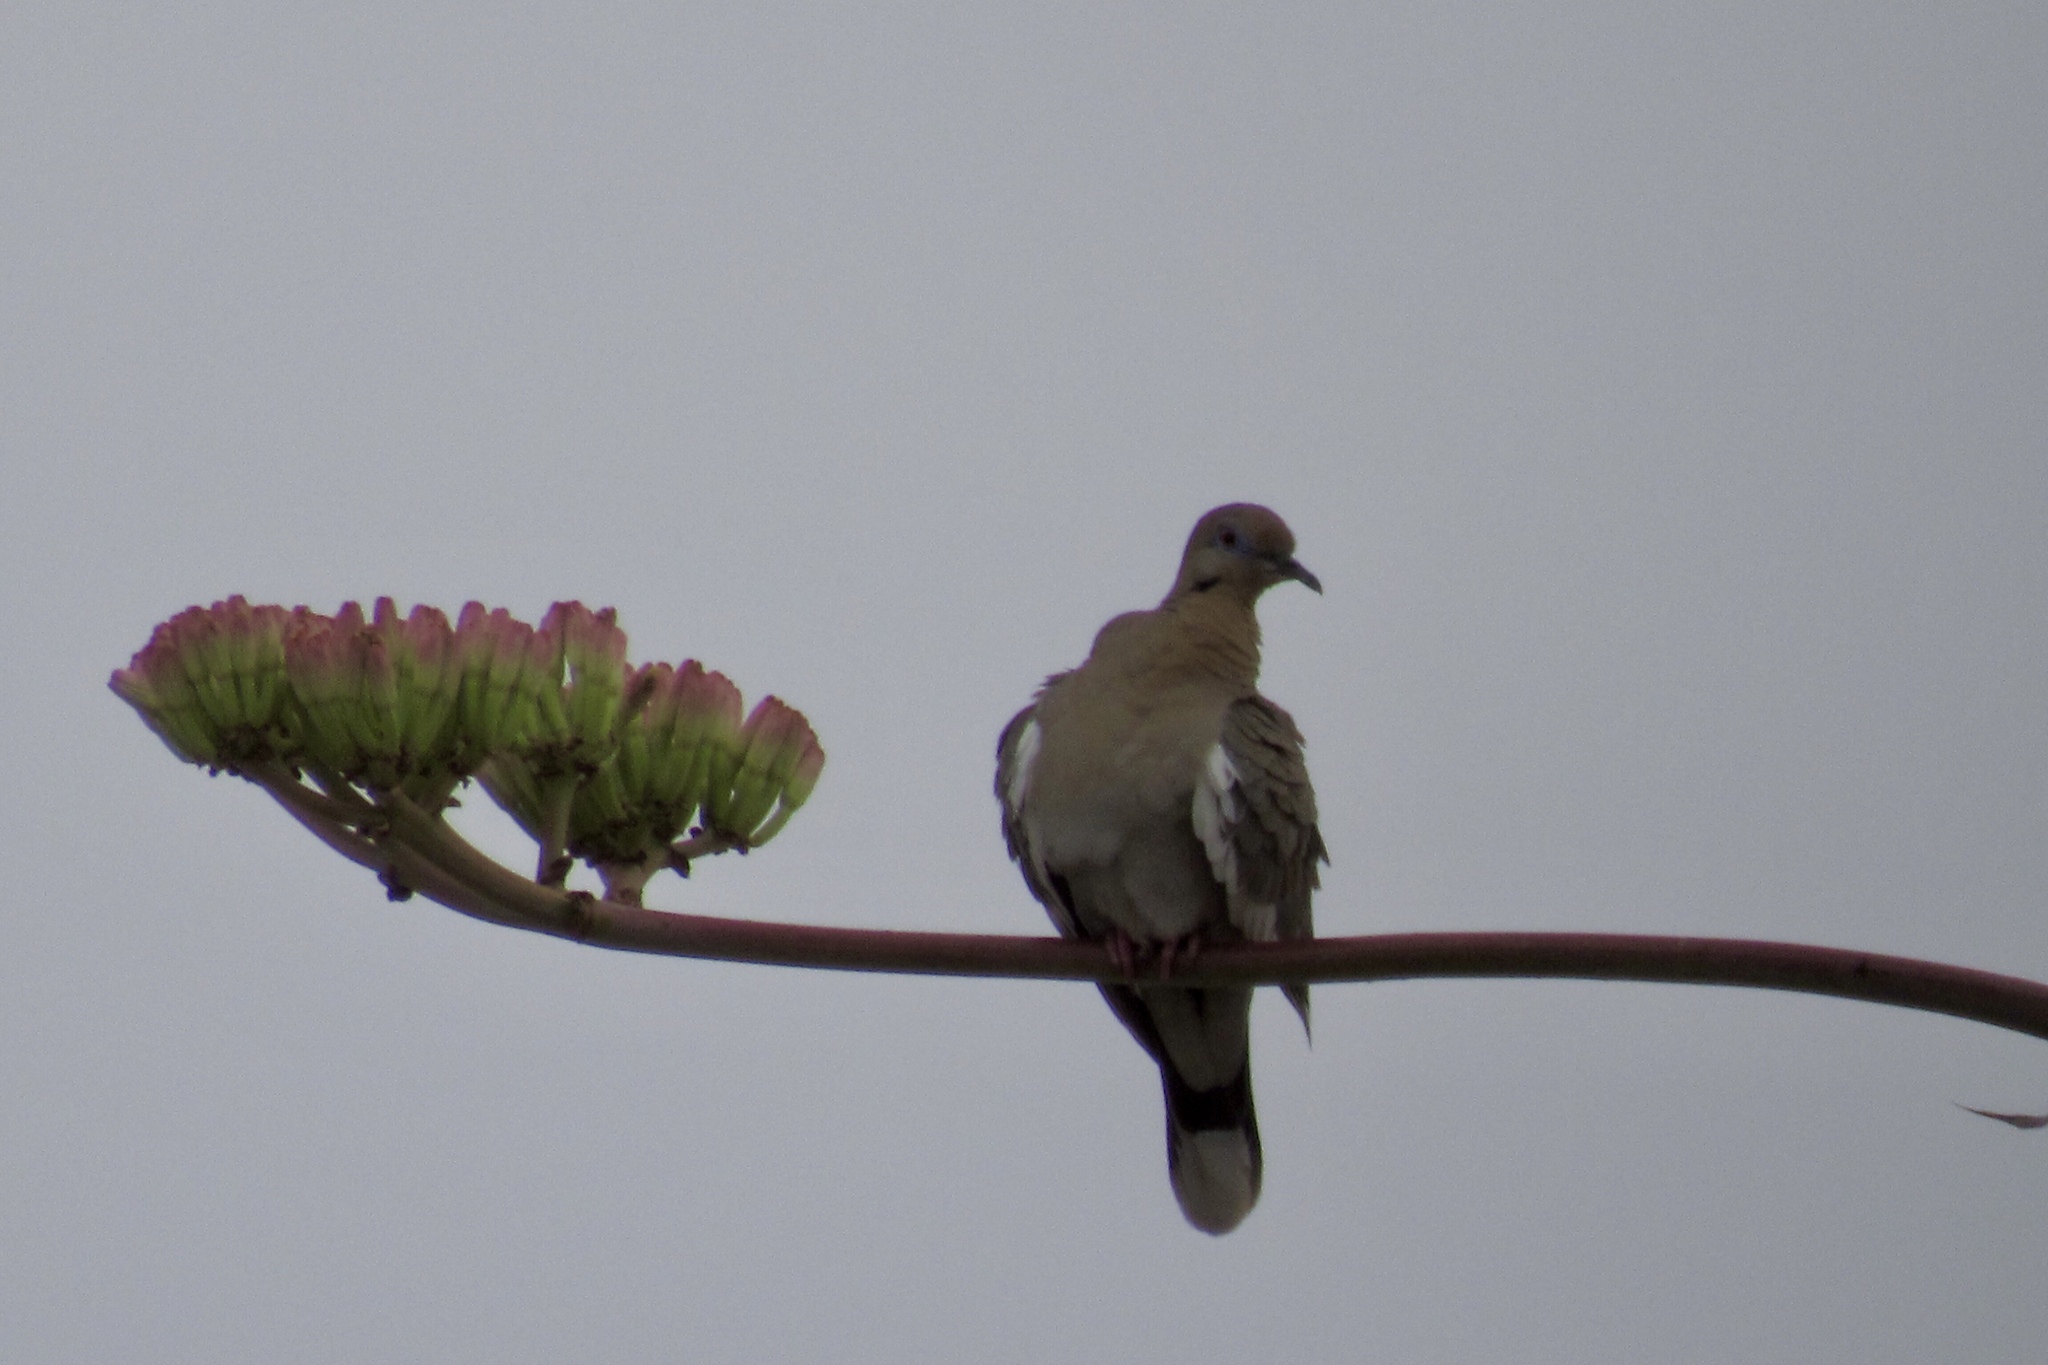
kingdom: Animalia
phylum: Chordata
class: Aves
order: Columbiformes
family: Columbidae
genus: Zenaida
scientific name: Zenaida asiatica
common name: White-winged dove
